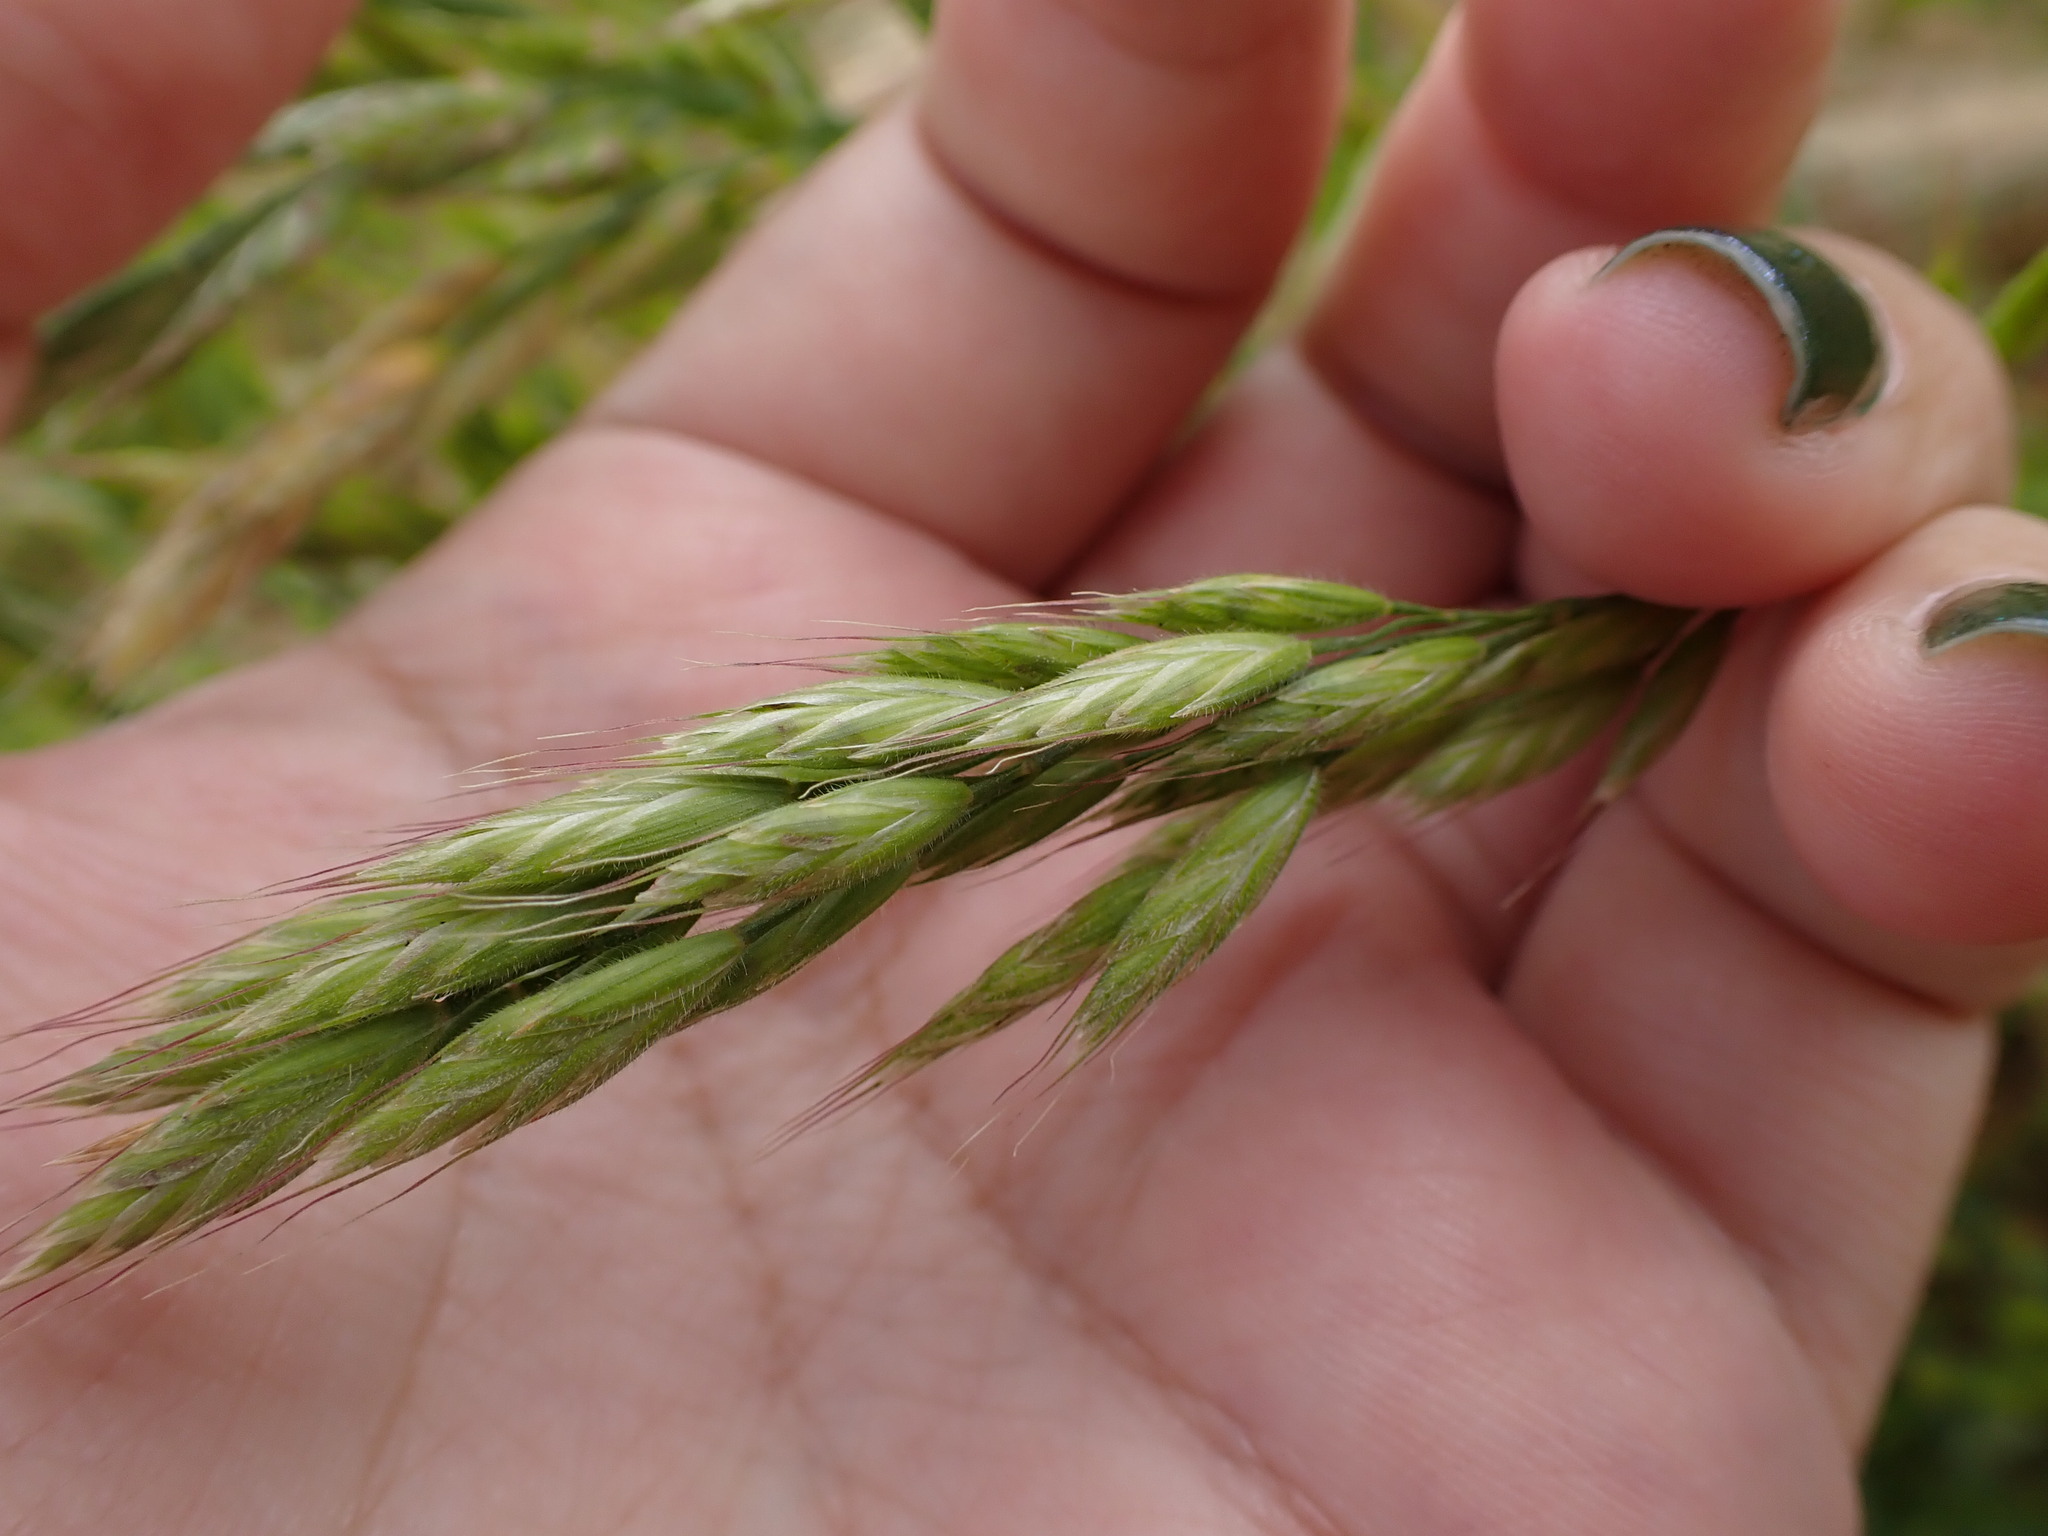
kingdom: Plantae
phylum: Tracheophyta
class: Liliopsida
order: Poales
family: Poaceae
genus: Bromus
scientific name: Bromus hordeaceus
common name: Soft brome
